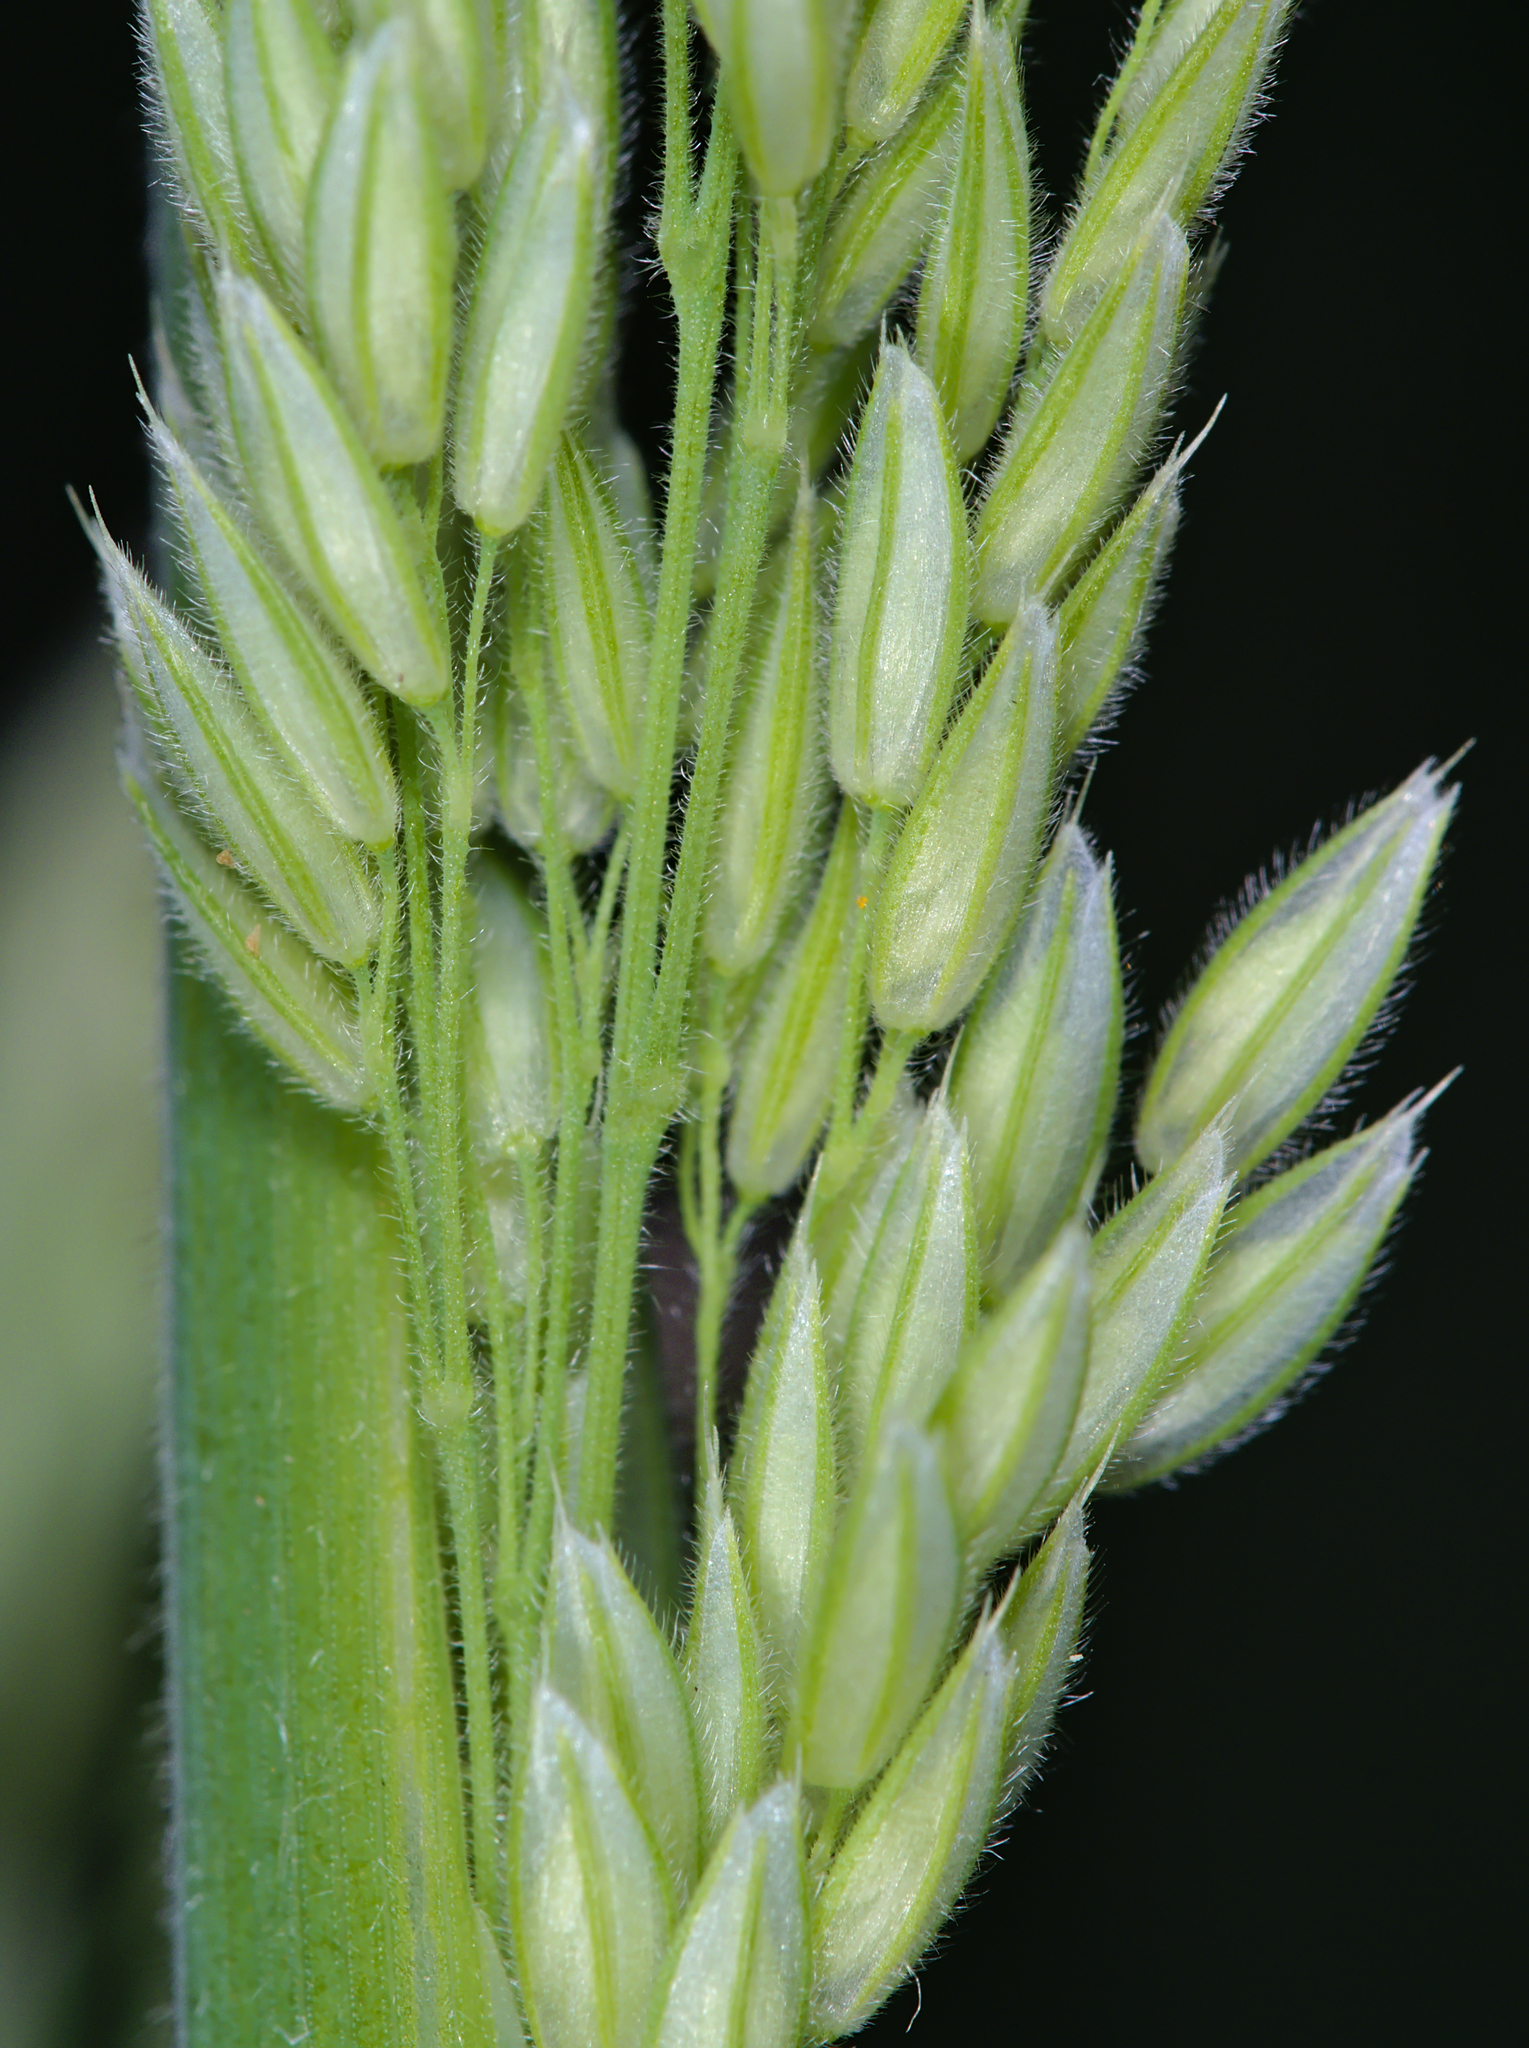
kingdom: Plantae
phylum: Tracheophyta
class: Liliopsida
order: Poales
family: Poaceae
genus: Holcus
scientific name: Holcus lanatus
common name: Yorkshire-fog
